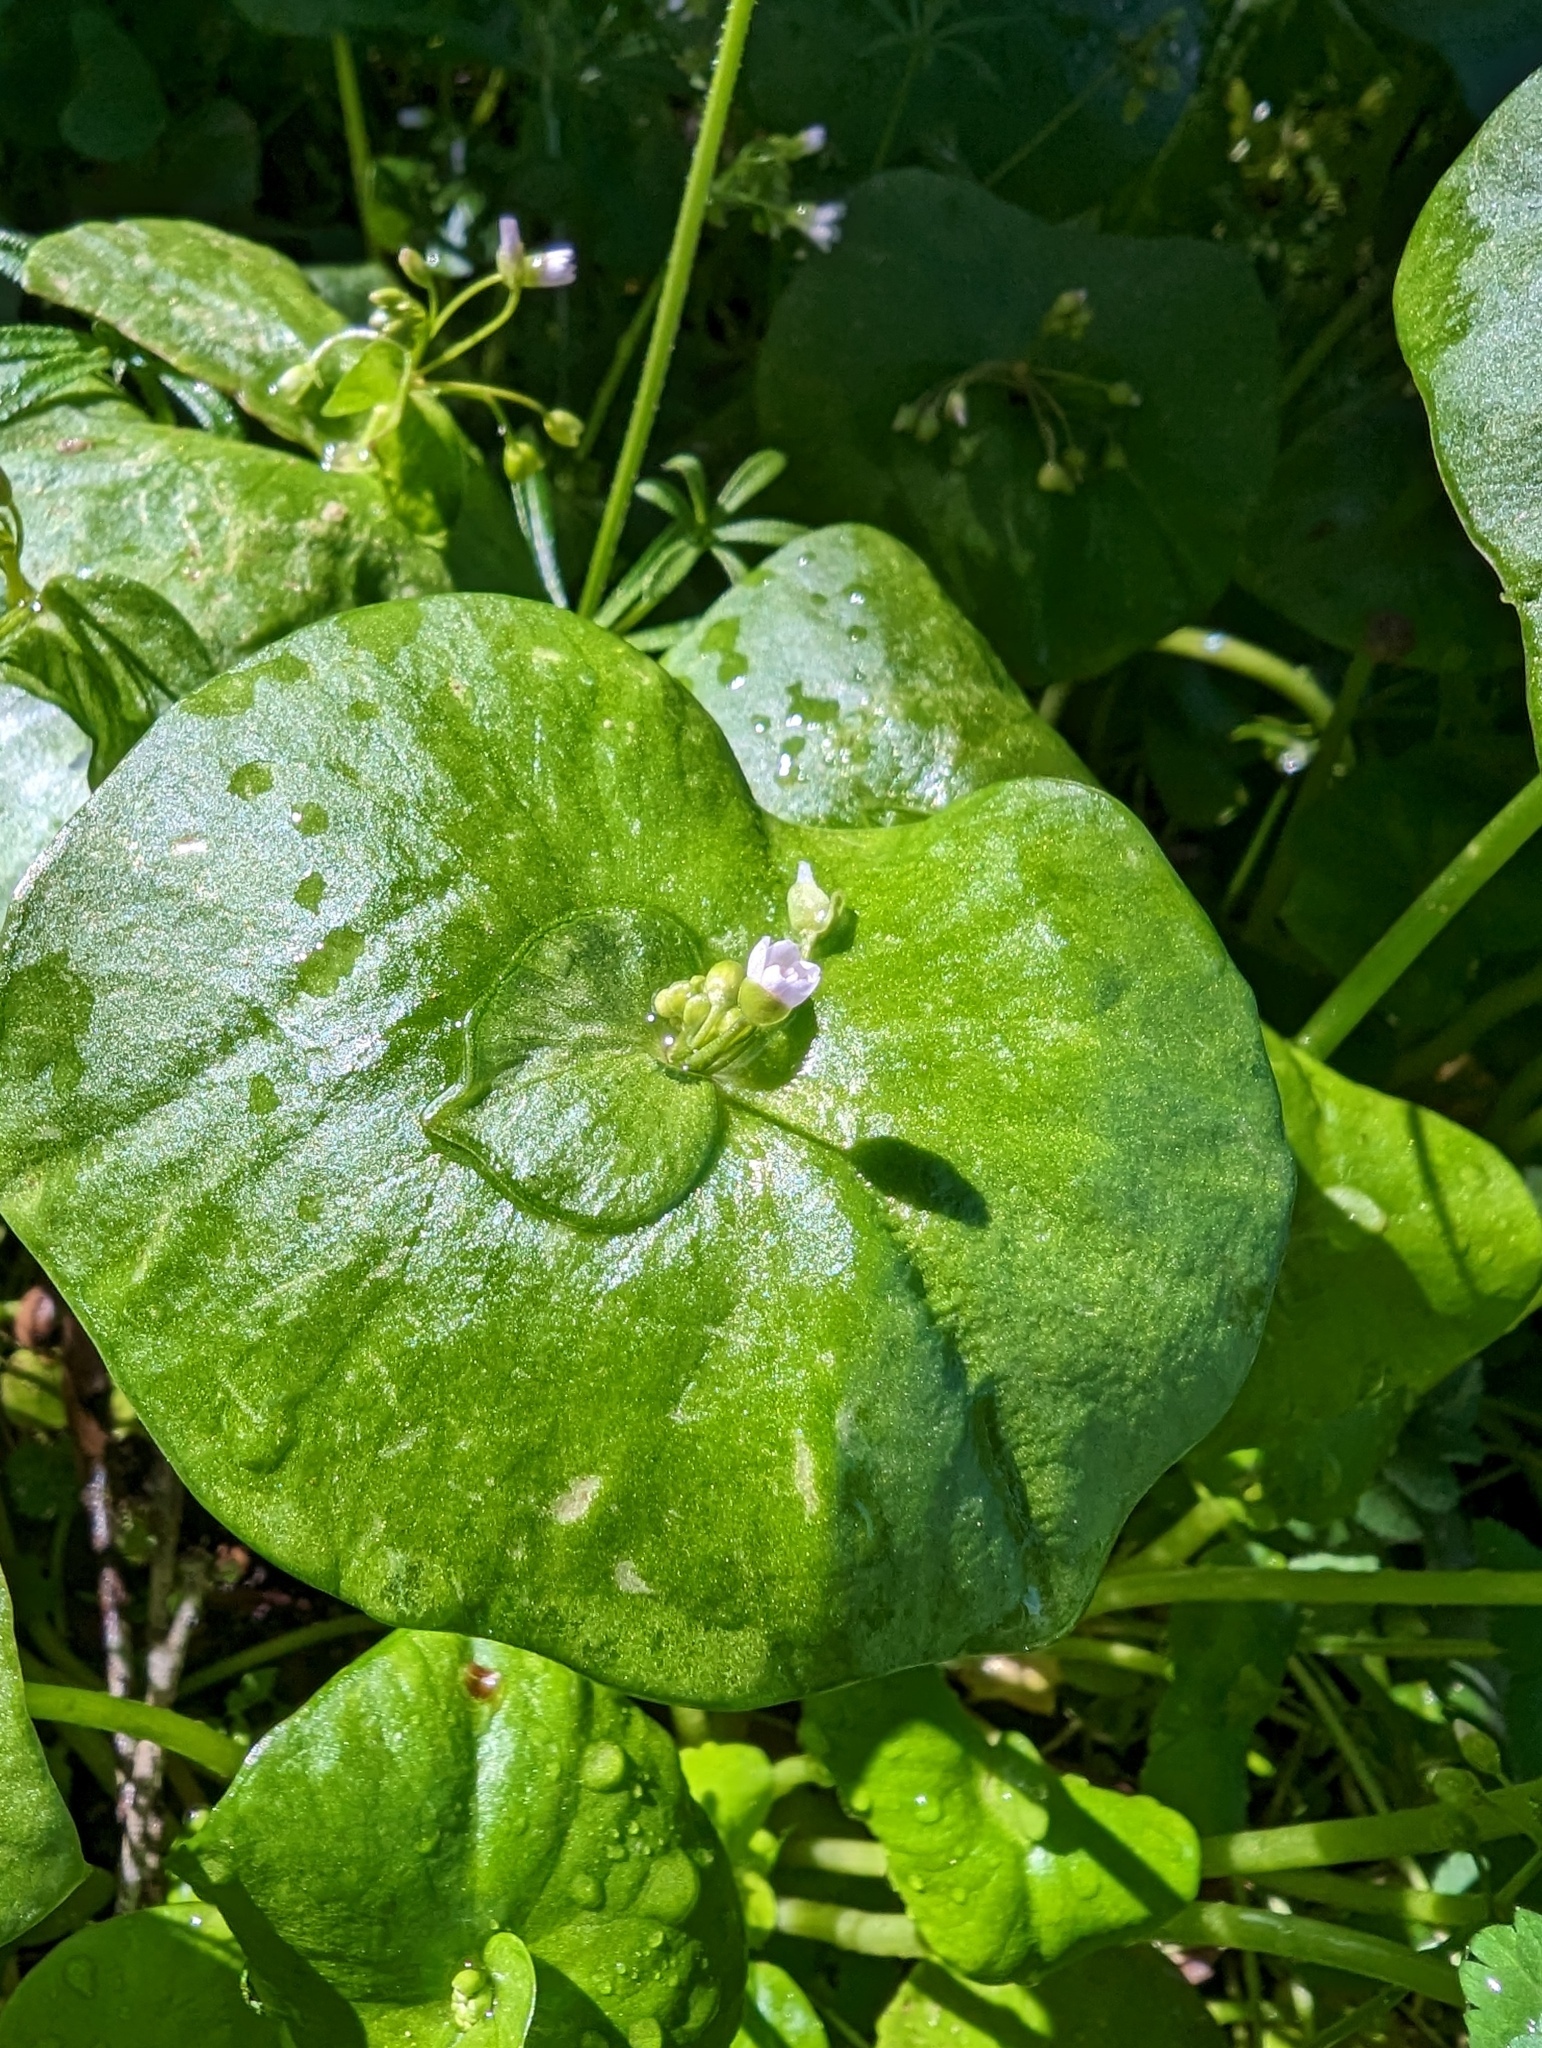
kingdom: Plantae
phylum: Tracheophyta
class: Magnoliopsida
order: Caryophyllales
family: Montiaceae
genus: Claytonia
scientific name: Claytonia perfoliata
